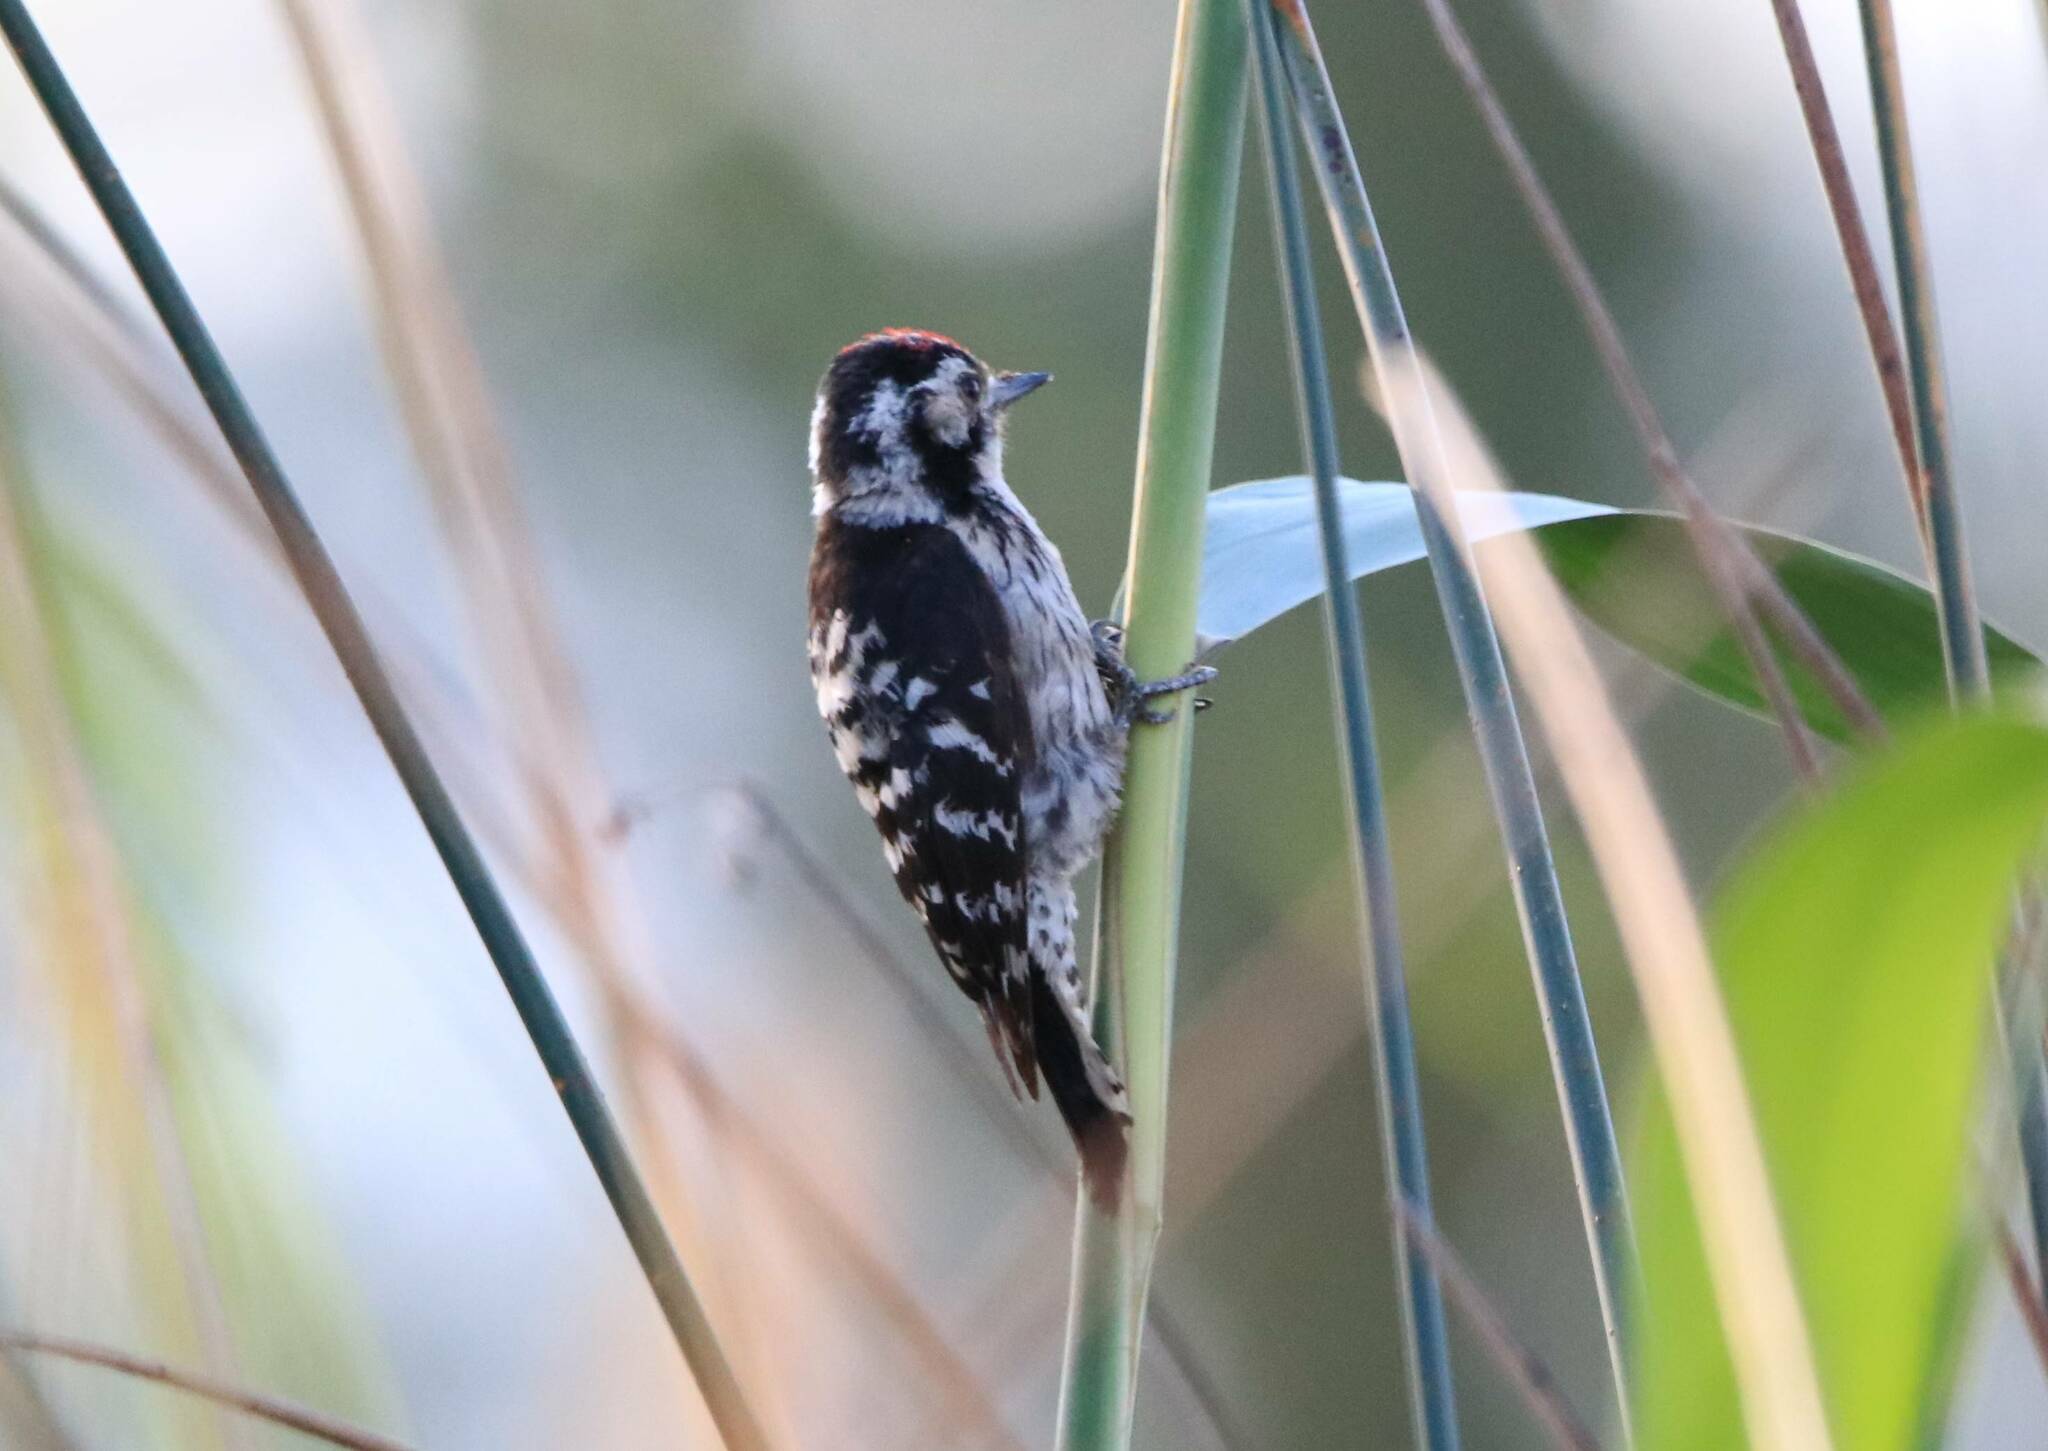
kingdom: Animalia
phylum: Chordata
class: Aves
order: Piciformes
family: Picidae
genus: Dryobates
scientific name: Dryobates minor
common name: Lesser spotted woodpecker
